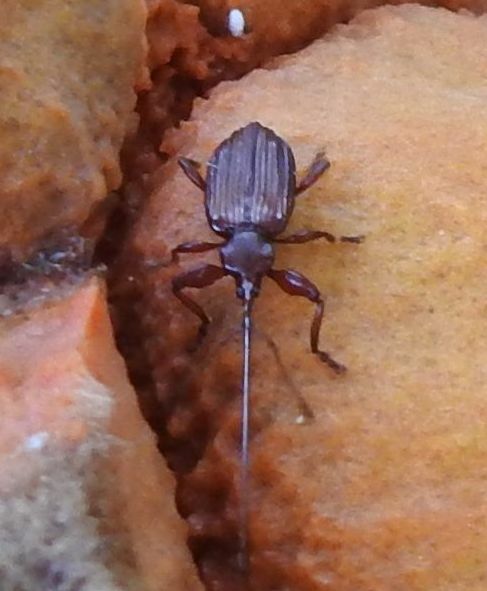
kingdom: Animalia
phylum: Arthropoda
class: Insecta
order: Coleoptera
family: Brentidae
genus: Antliarhinus
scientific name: Antliarhinus Antliarhis zamiae
